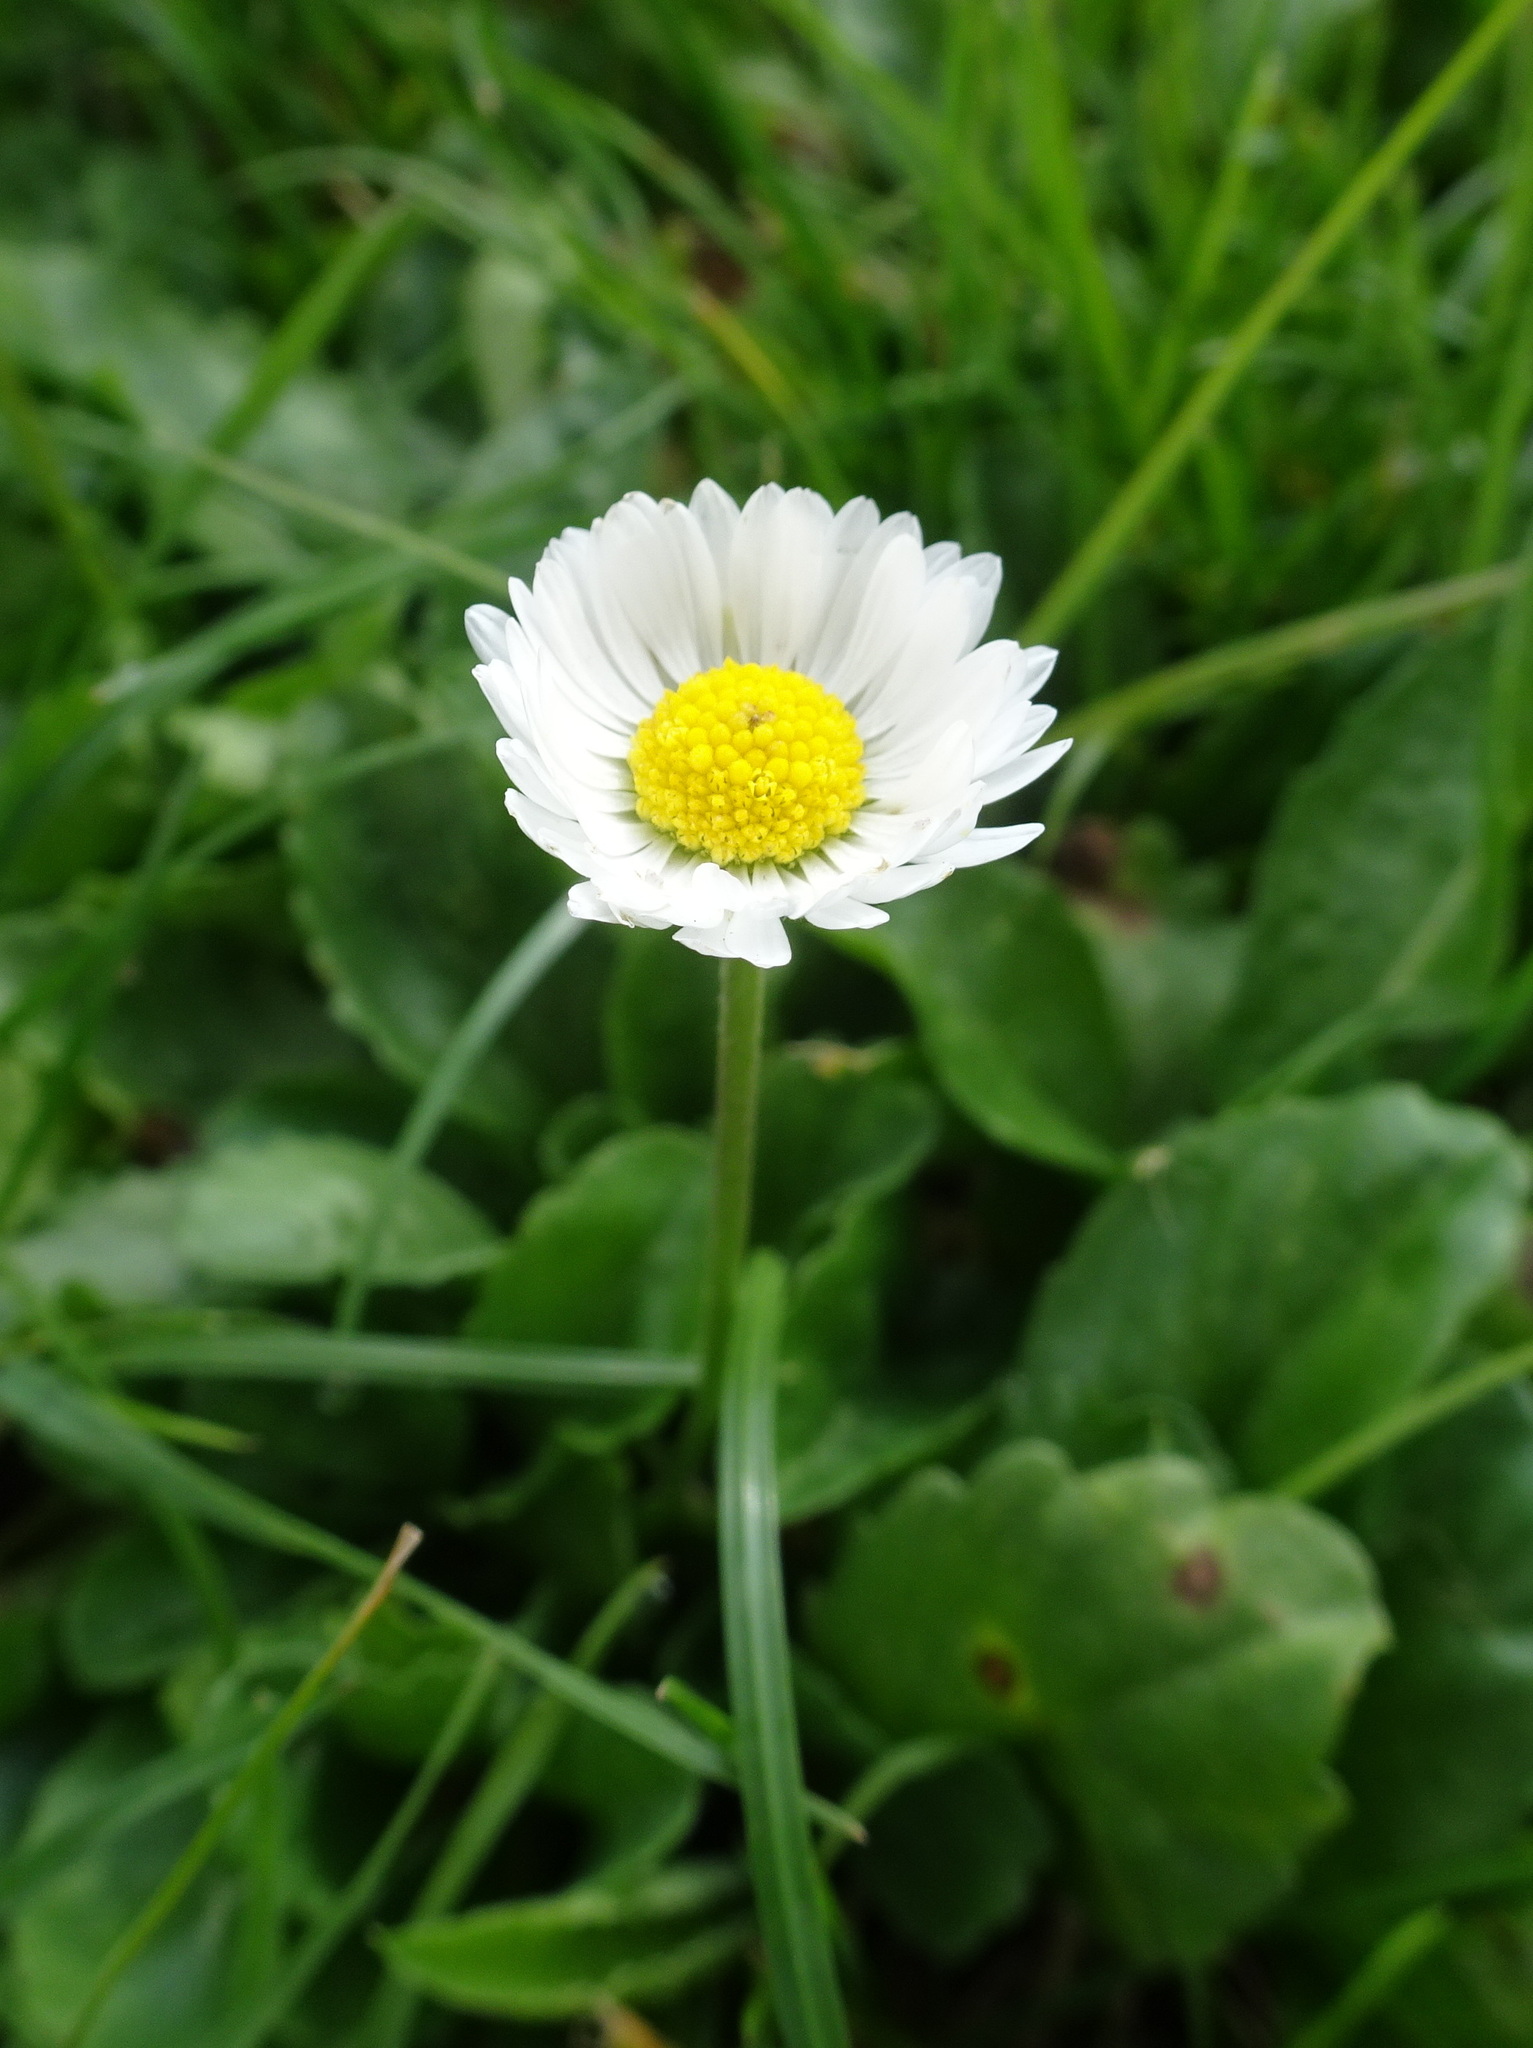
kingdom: Plantae
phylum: Tracheophyta
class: Magnoliopsida
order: Asterales
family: Asteraceae
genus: Bellis
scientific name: Bellis perennis
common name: Lawndaisy
